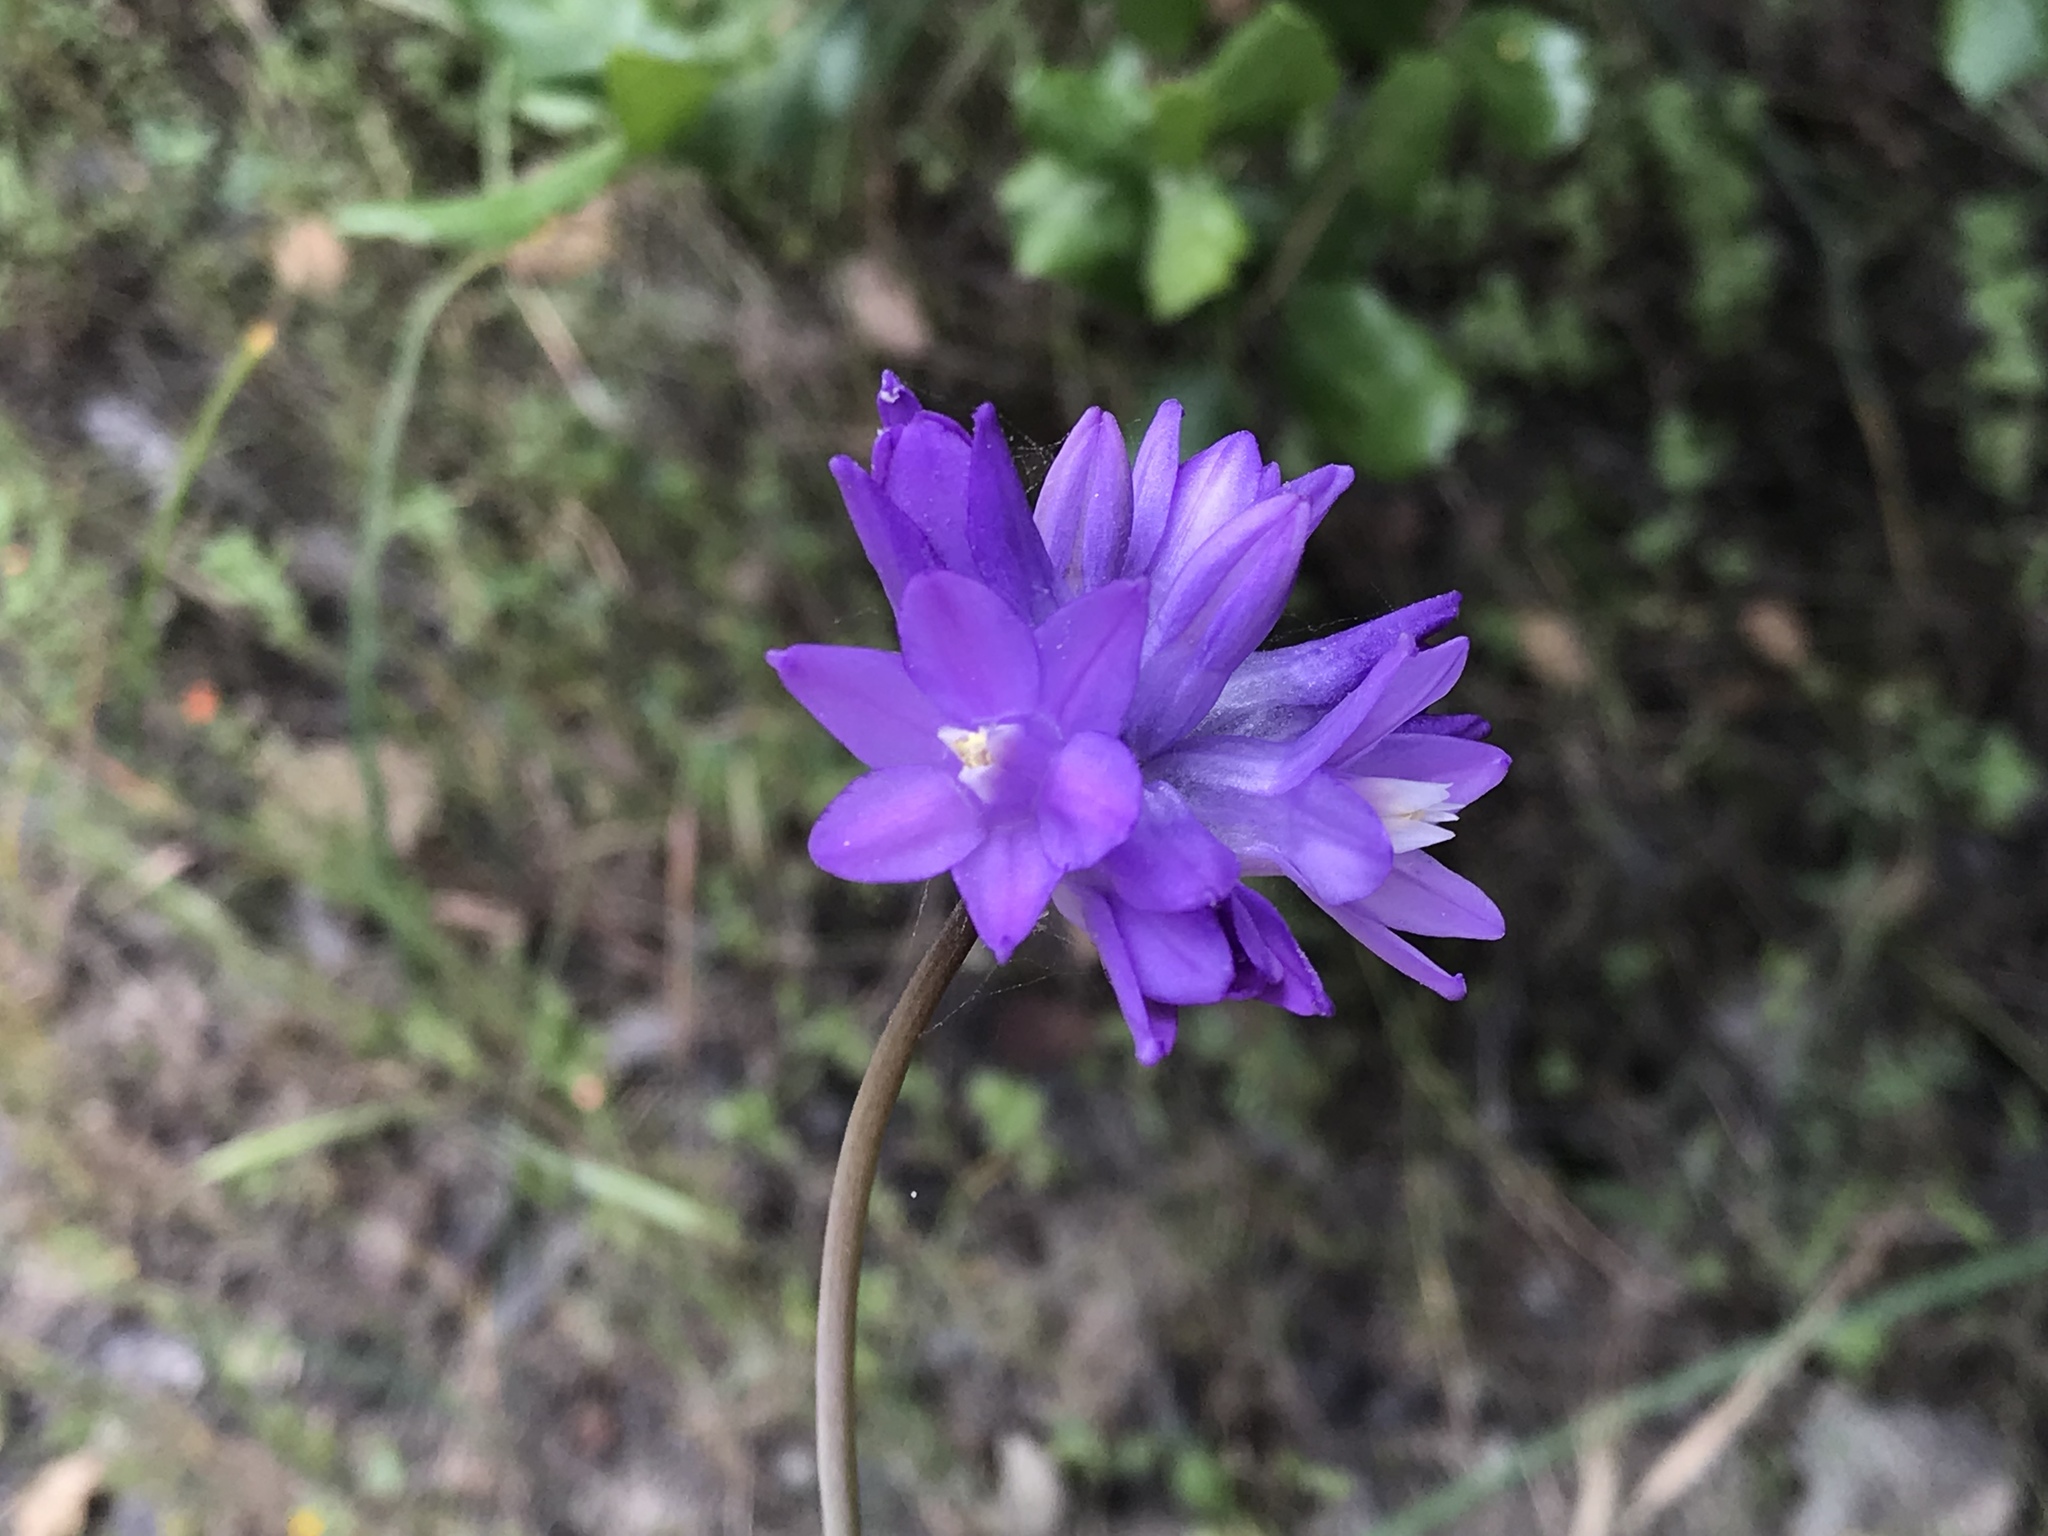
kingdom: Plantae
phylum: Tracheophyta
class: Liliopsida
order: Asparagales
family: Asparagaceae
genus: Dipterostemon
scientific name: Dipterostemon capitatus
